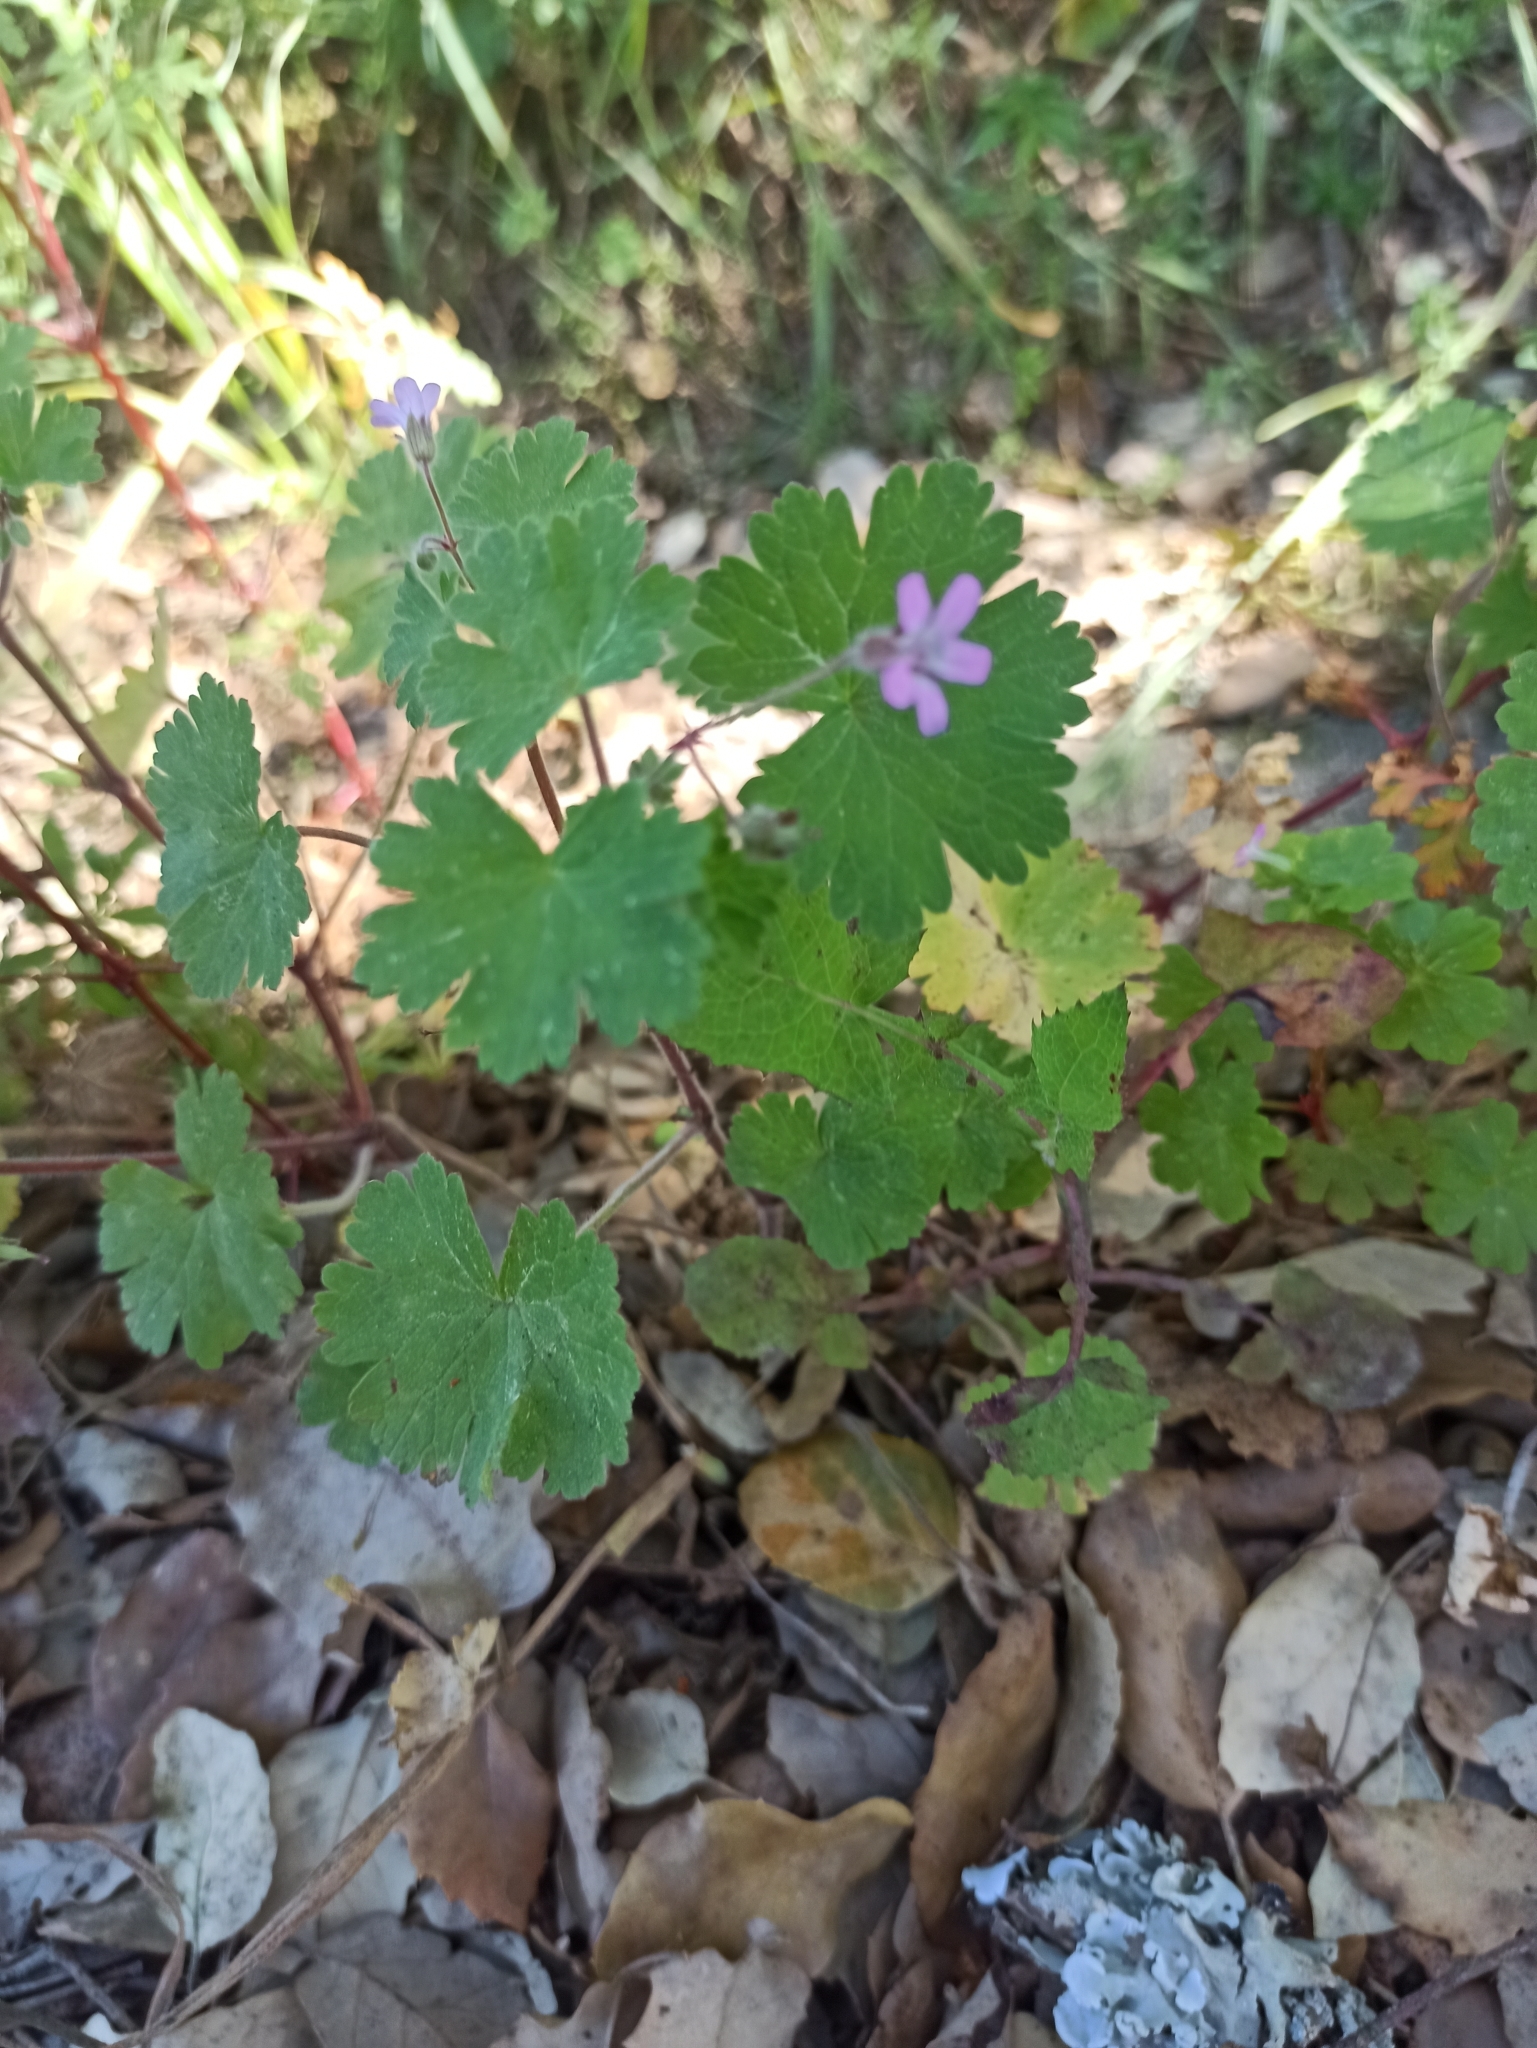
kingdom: Plantae
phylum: Tracheophyta
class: Magnoliopsida
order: Geraniales
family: Geraniaceae
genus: Geranium
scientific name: Geranium rotundifolium
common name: Round-leaved crane's-bill
